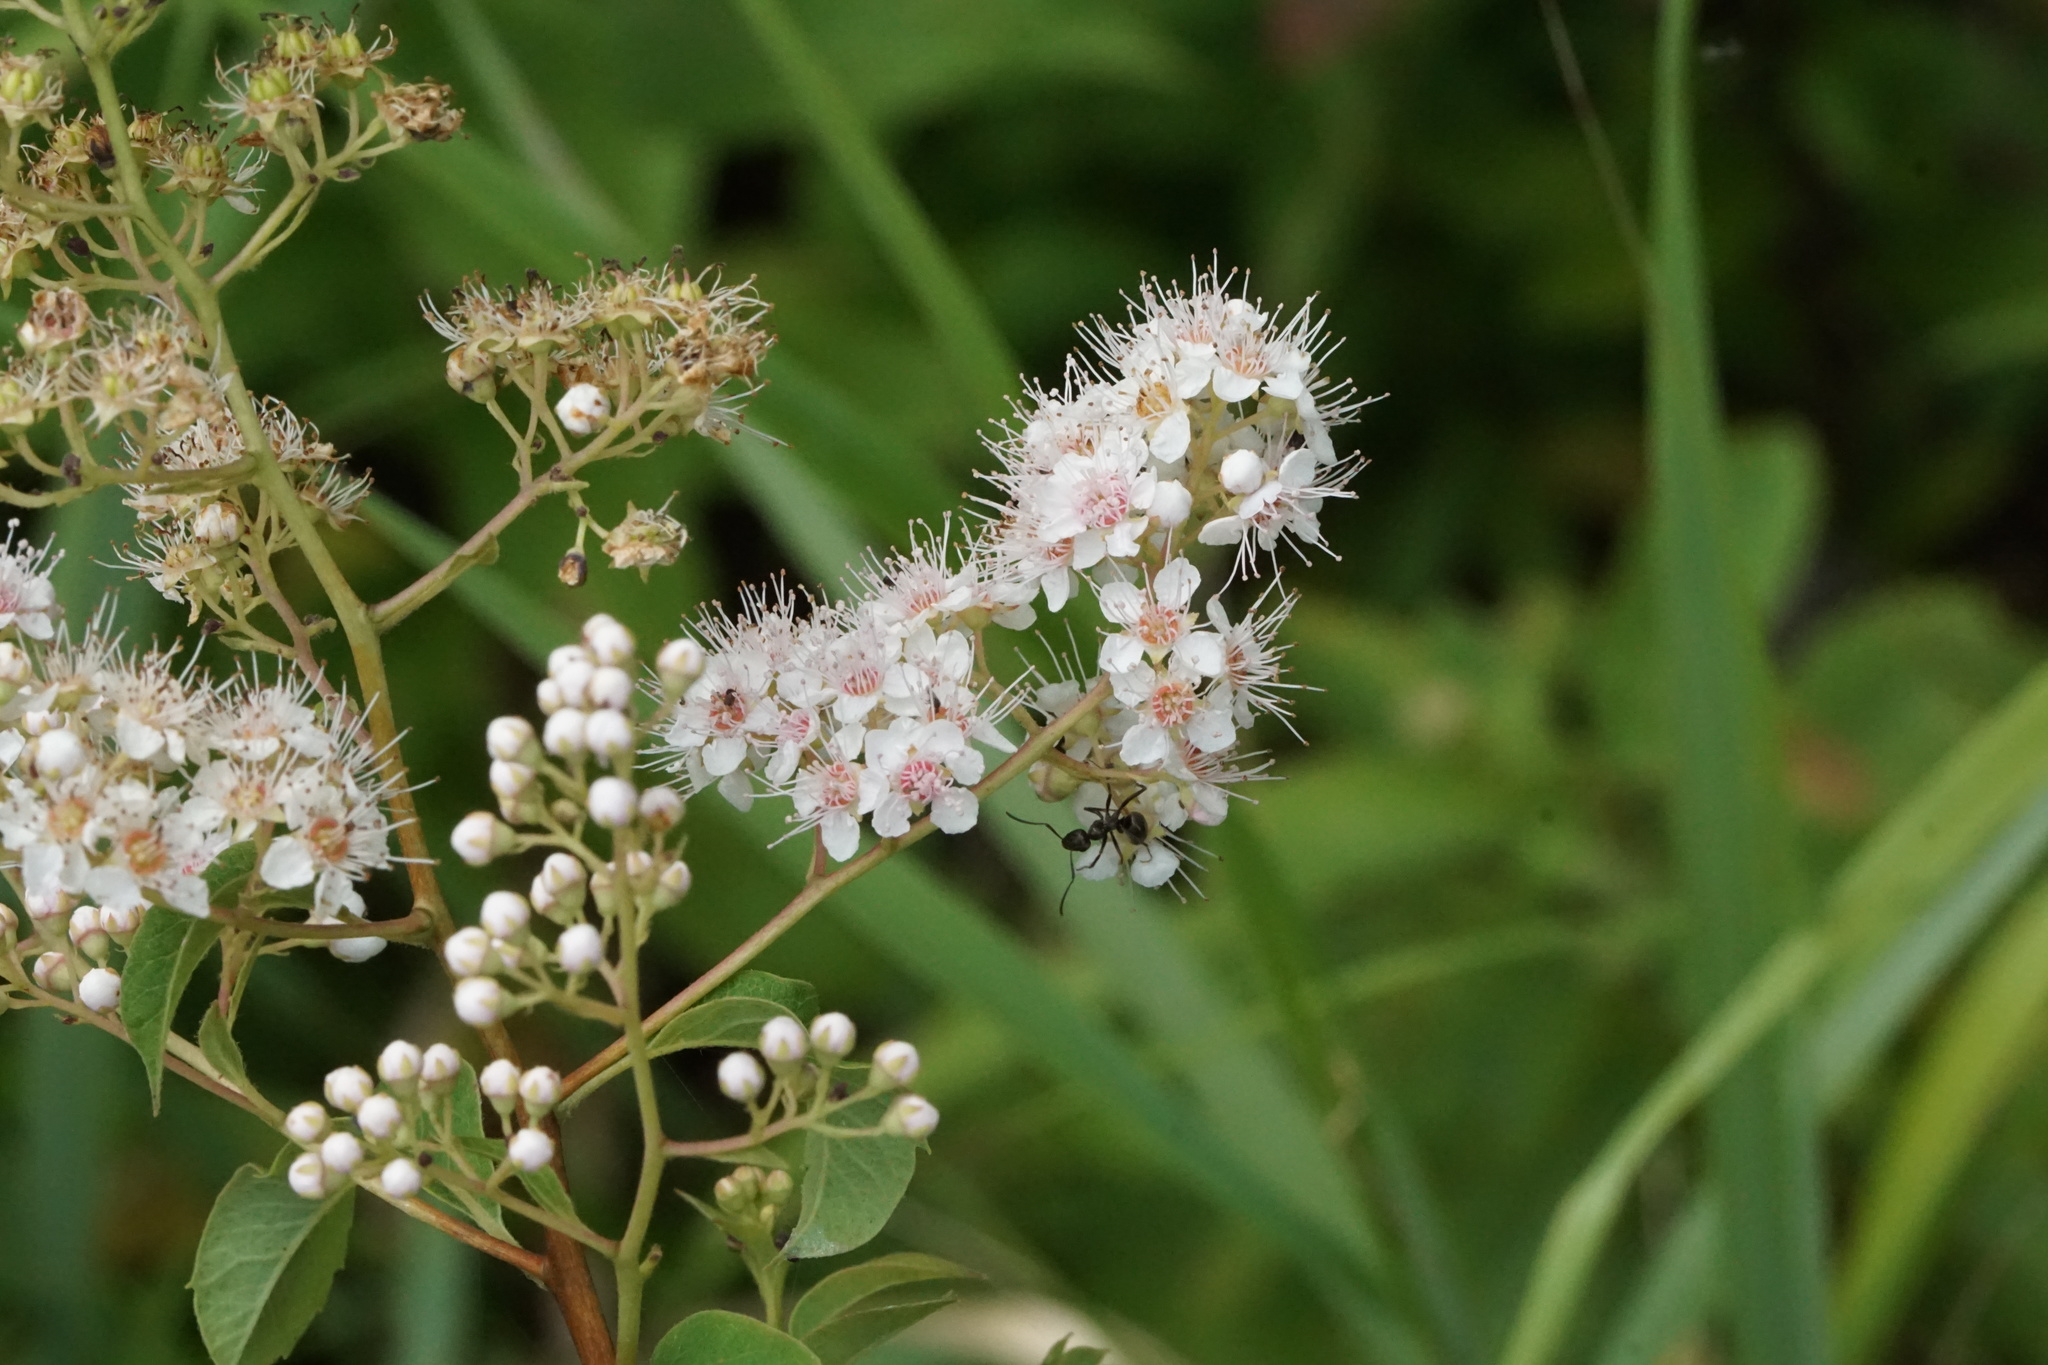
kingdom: Plantae
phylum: Tracheophyta
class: Magnoliopsida
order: Rosales
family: Rosaceae
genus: Spiraea
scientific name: Spiraea alba
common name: Pale bridewort
